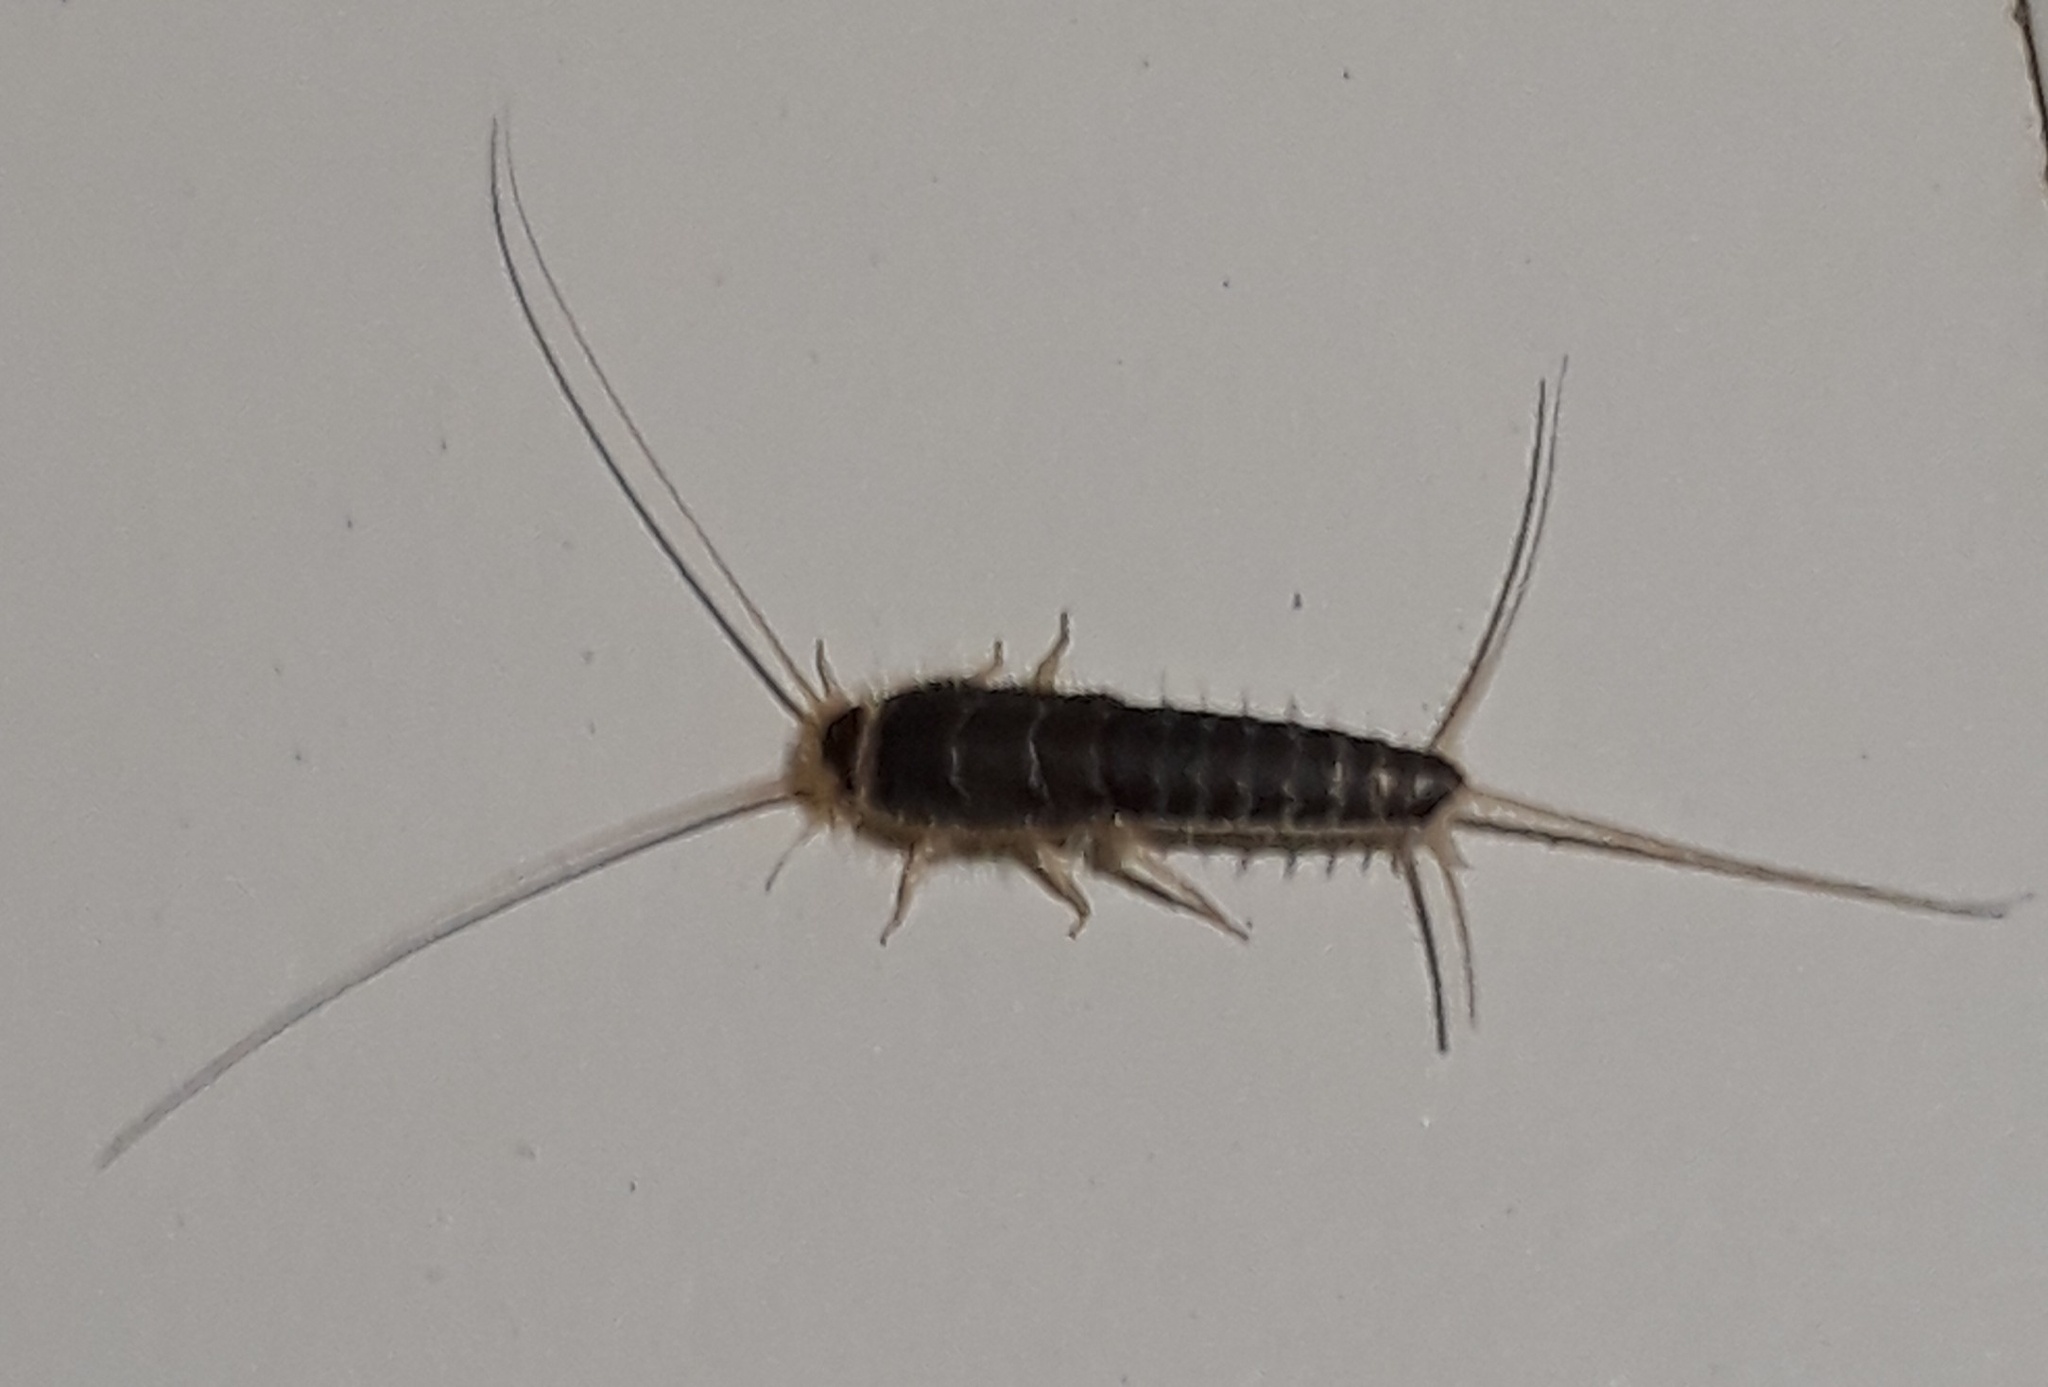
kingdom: Animalia
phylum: Arthropoda
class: Insecta
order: Zygentoma
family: Lepismatidae
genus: Ctenolepisma
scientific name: Ctenolepisma longicaudatum
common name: Silverfish
